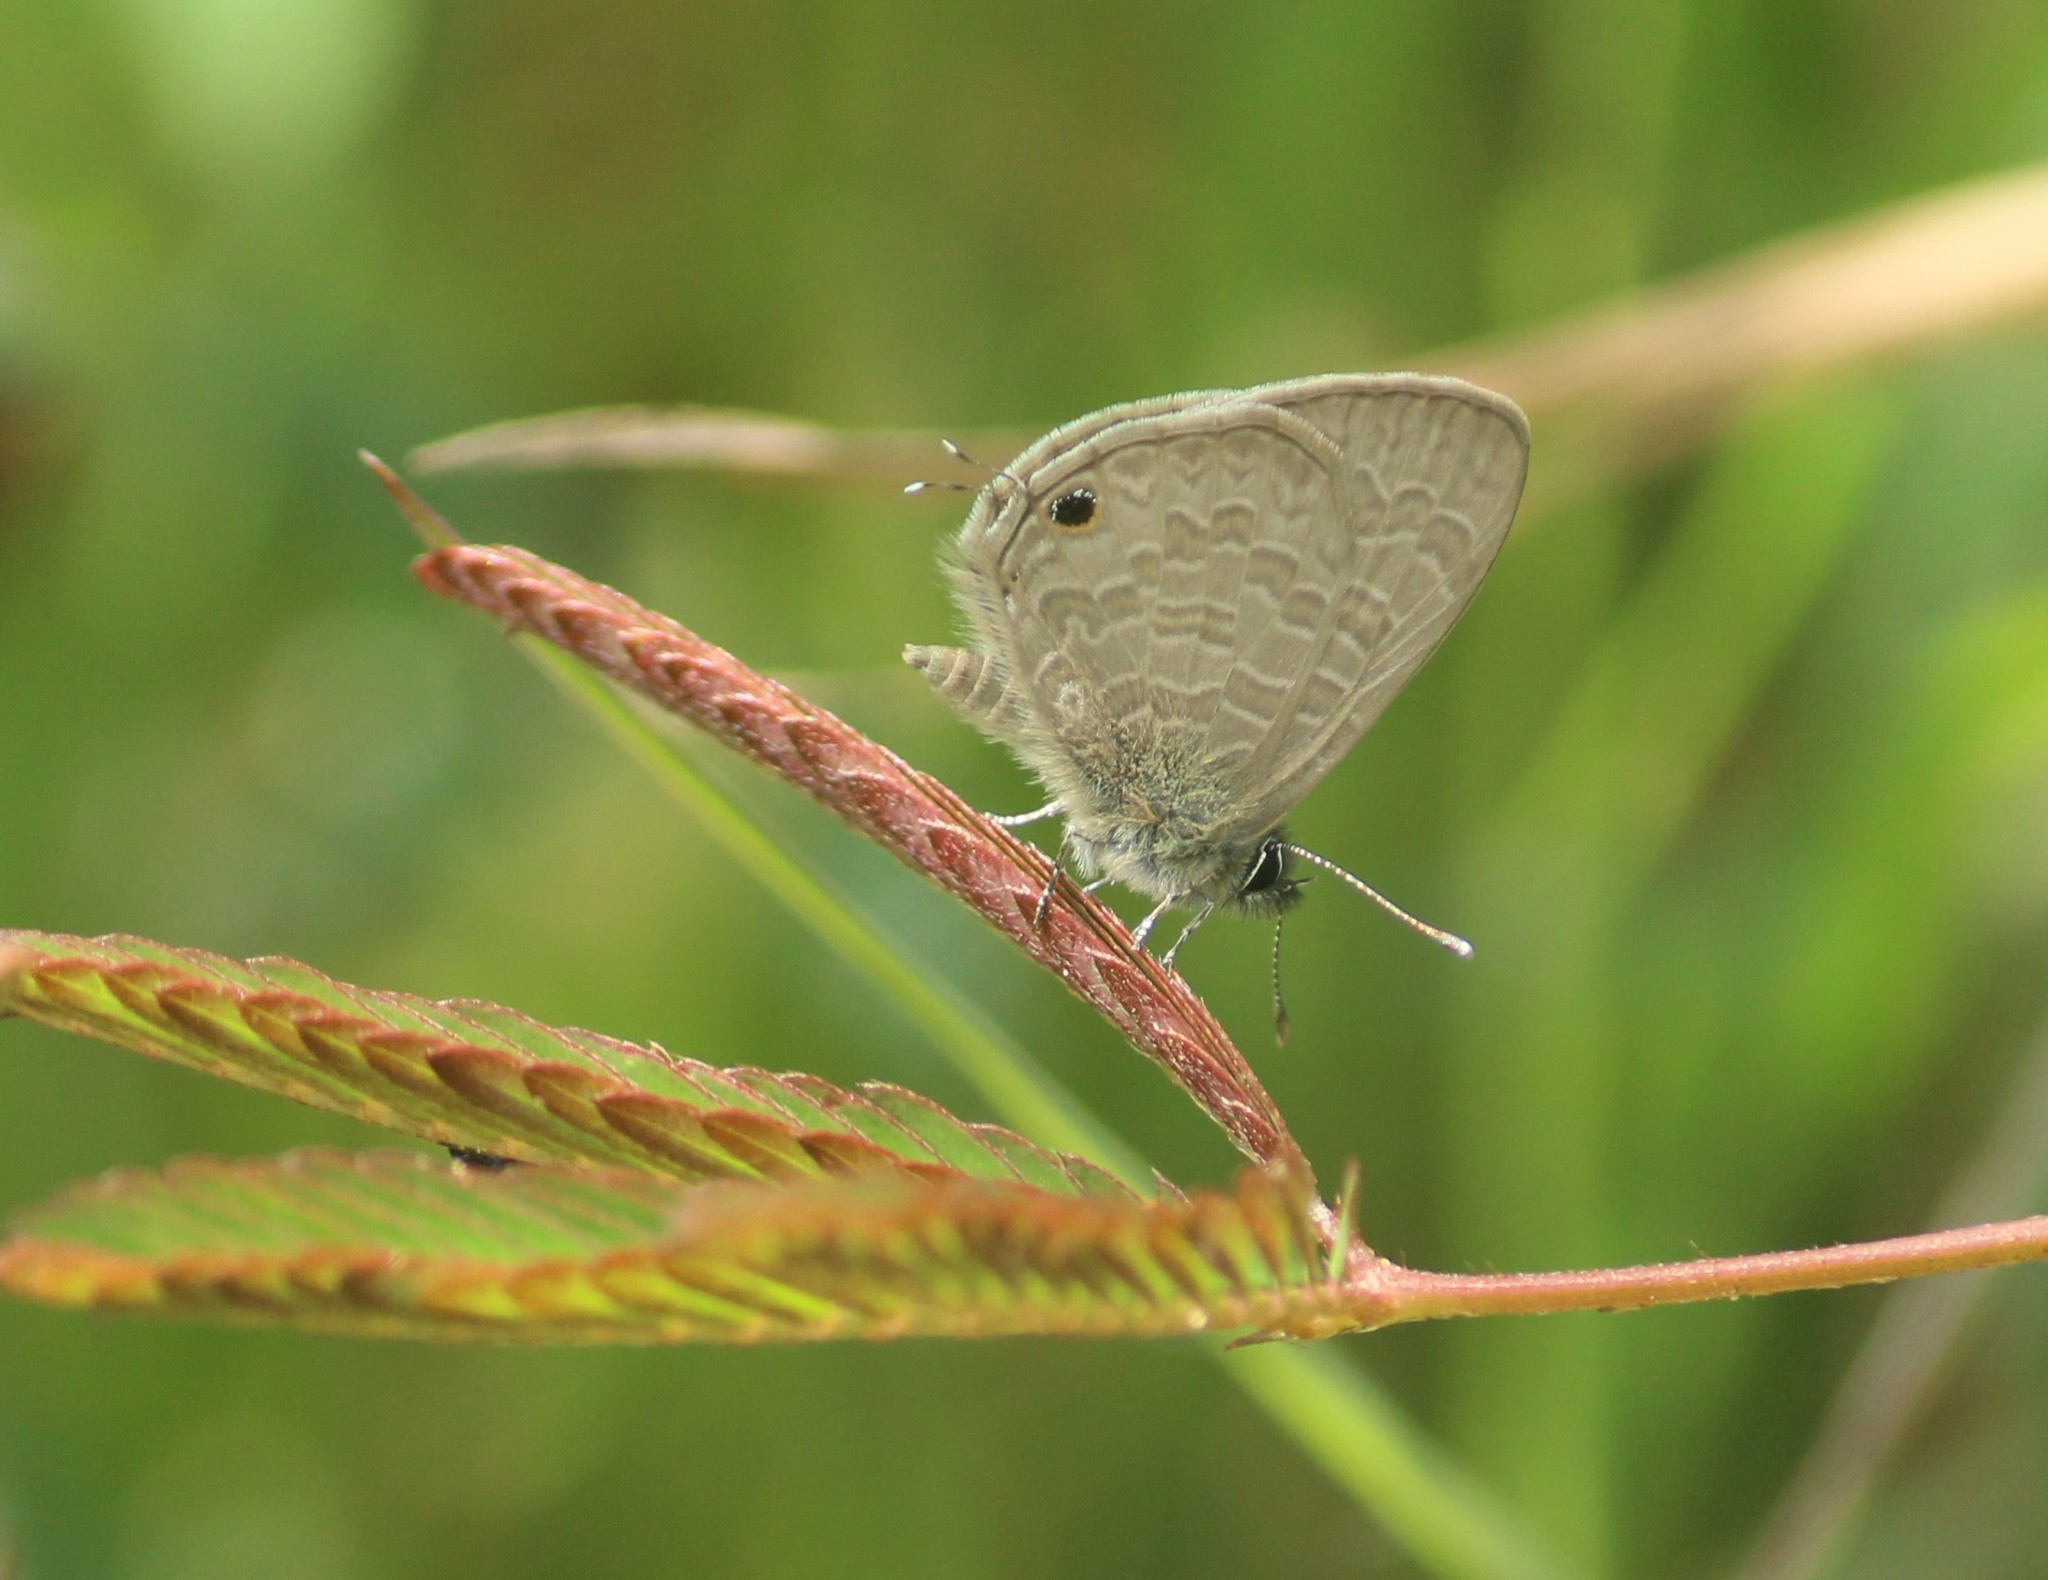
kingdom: Animalia
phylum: Arthropoda
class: Insecta
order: Lepidoptera
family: Lycaenidae
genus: Prosotas
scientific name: Prosotas nora
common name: Common line blue
